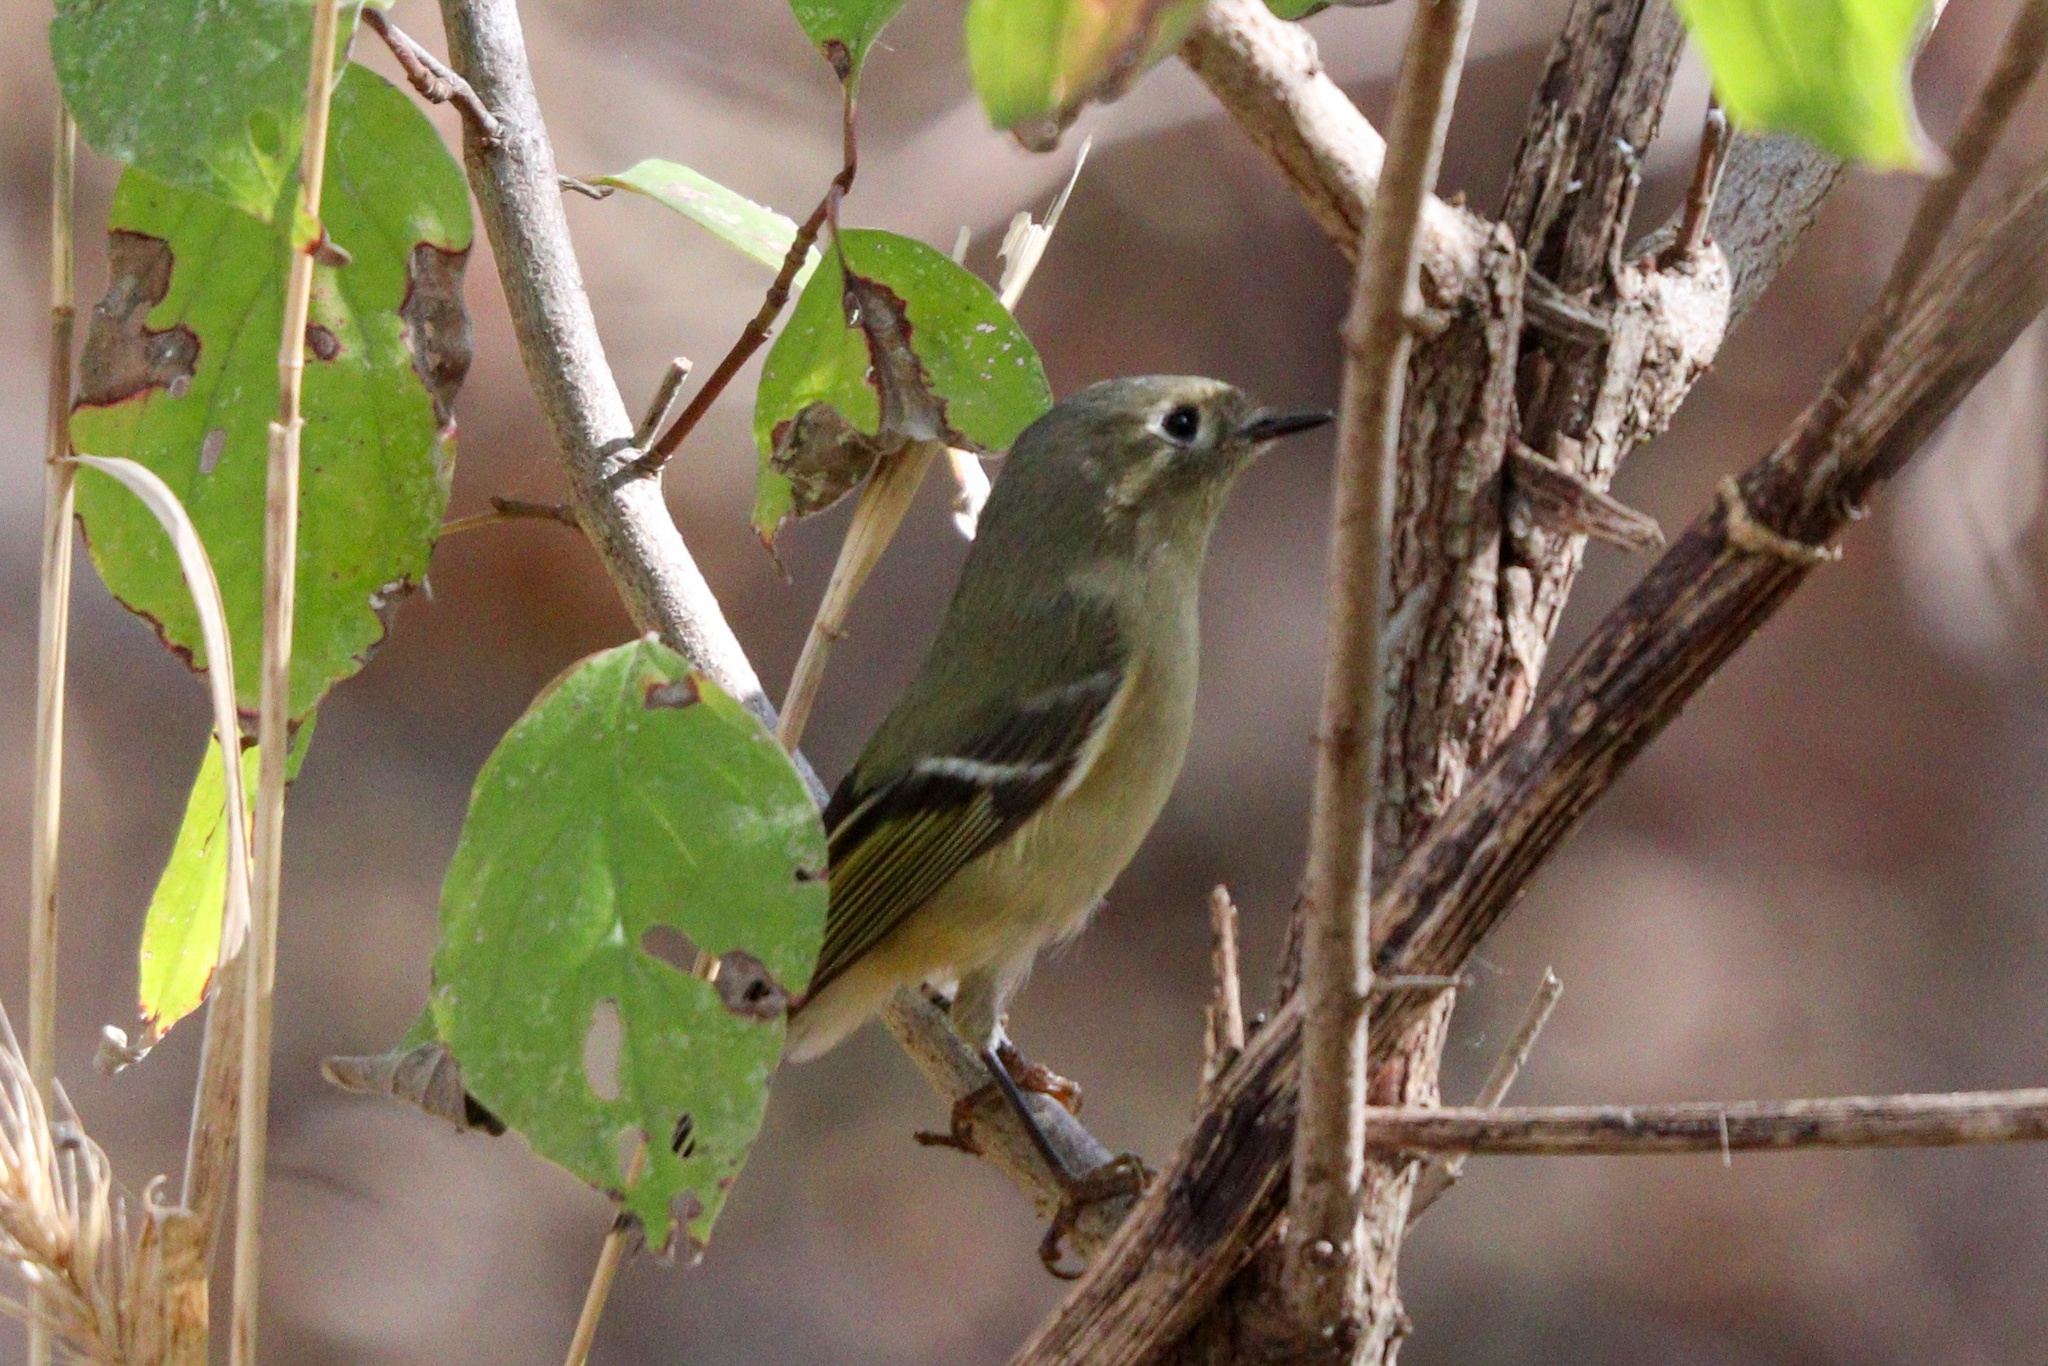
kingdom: Animalia
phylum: Chordata
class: Aves
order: Passeriformes
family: Regulidae
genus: Regulus
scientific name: Regulus calendula
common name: Ruby-crowned kinglet
